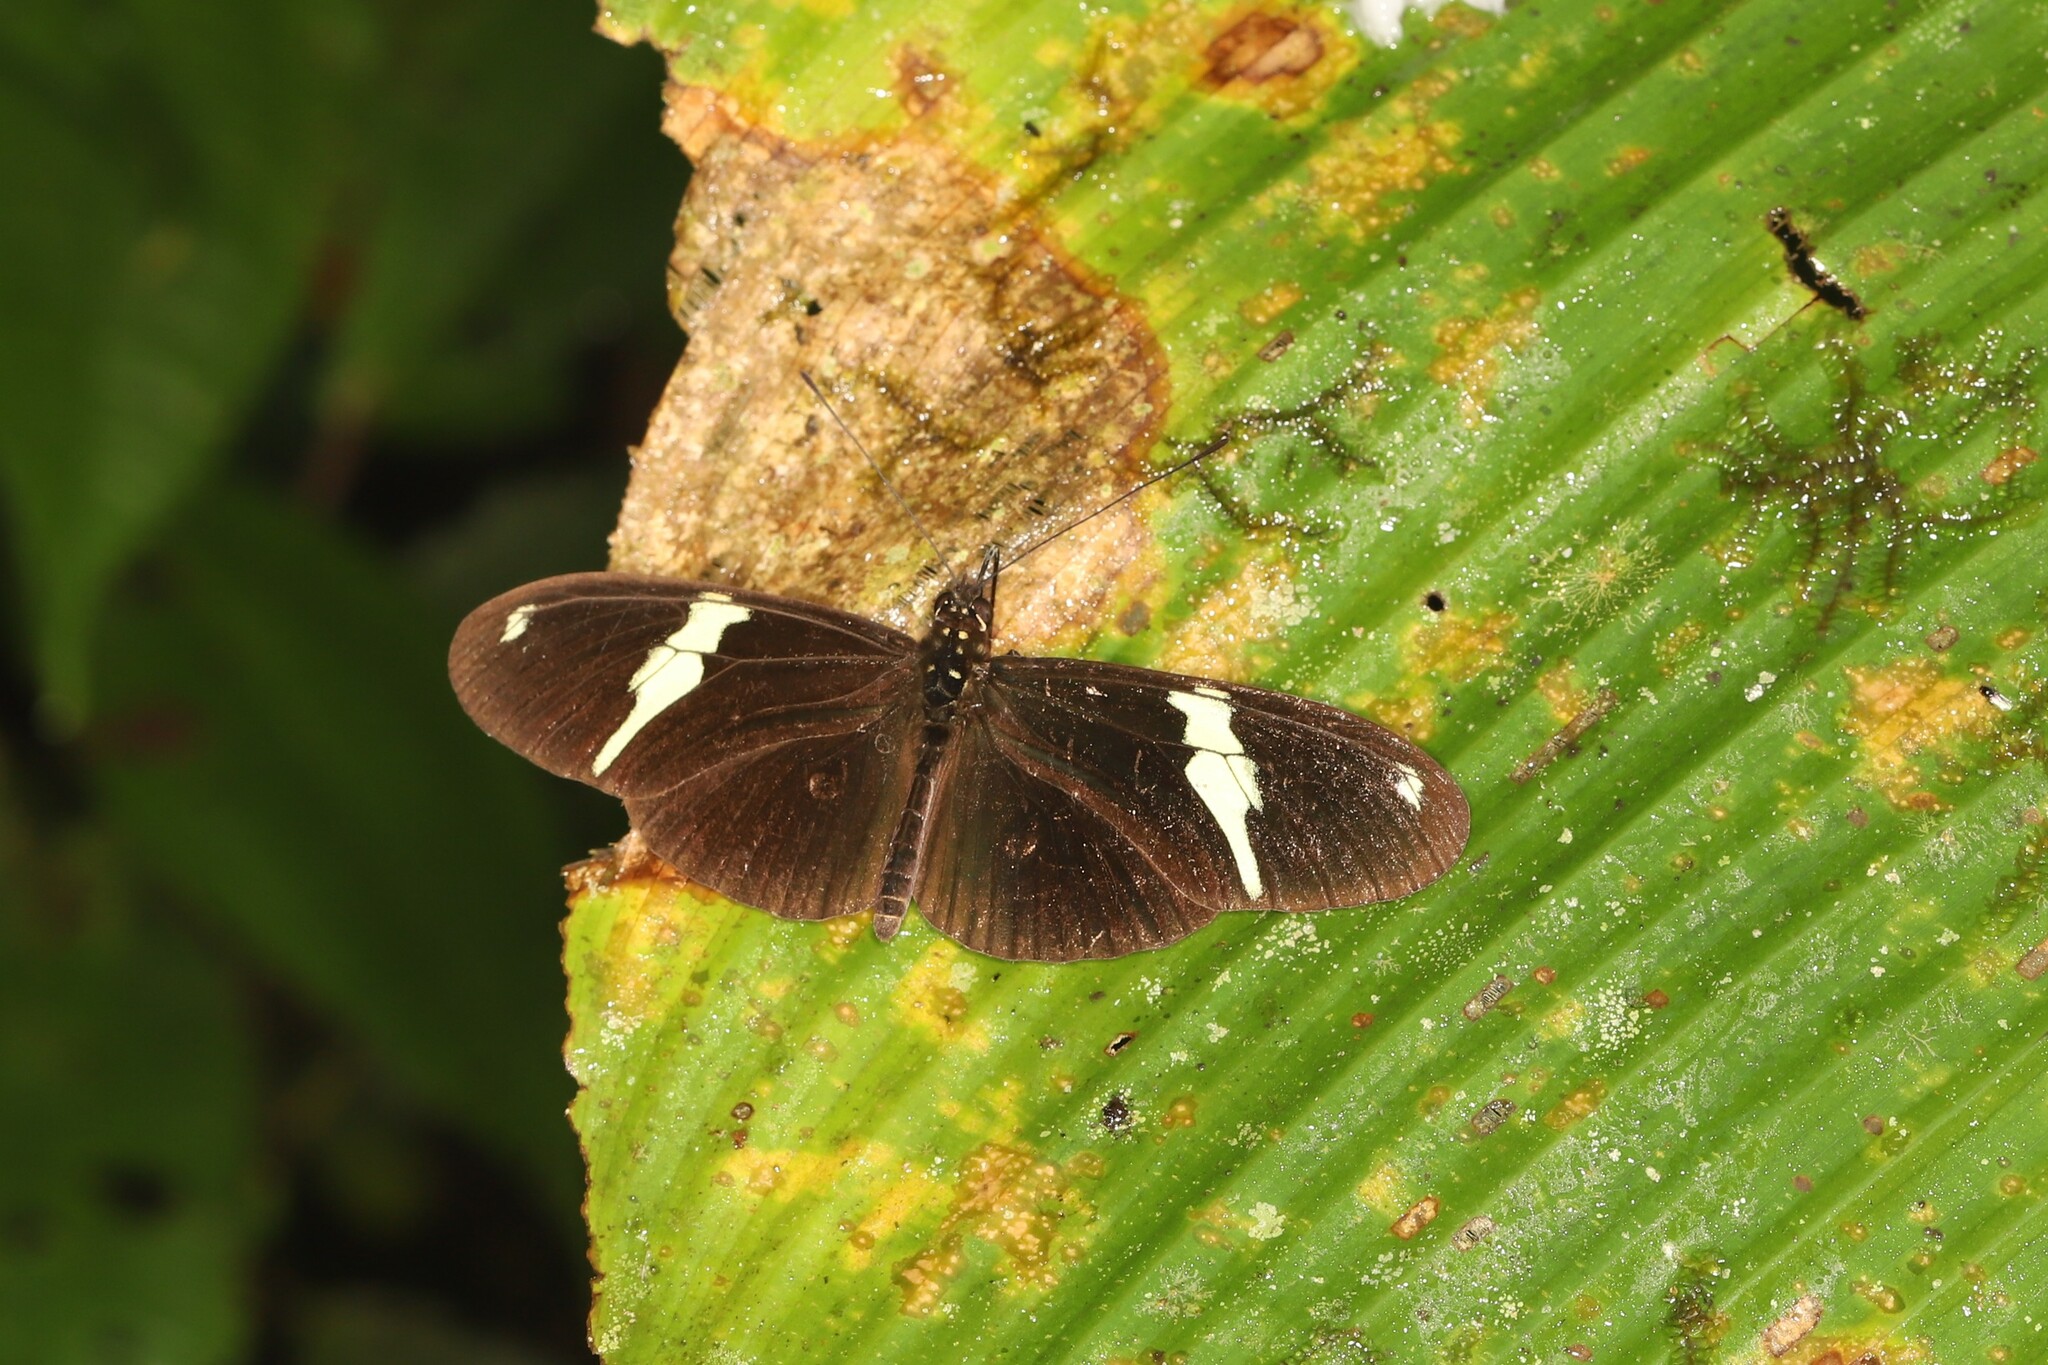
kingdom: Animalia
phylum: Arthropoda
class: Insecta
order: Lepidoptera
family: Nymphalidae
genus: Heliconius
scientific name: Heliconius clysonymus
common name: Clysonymus longwing
